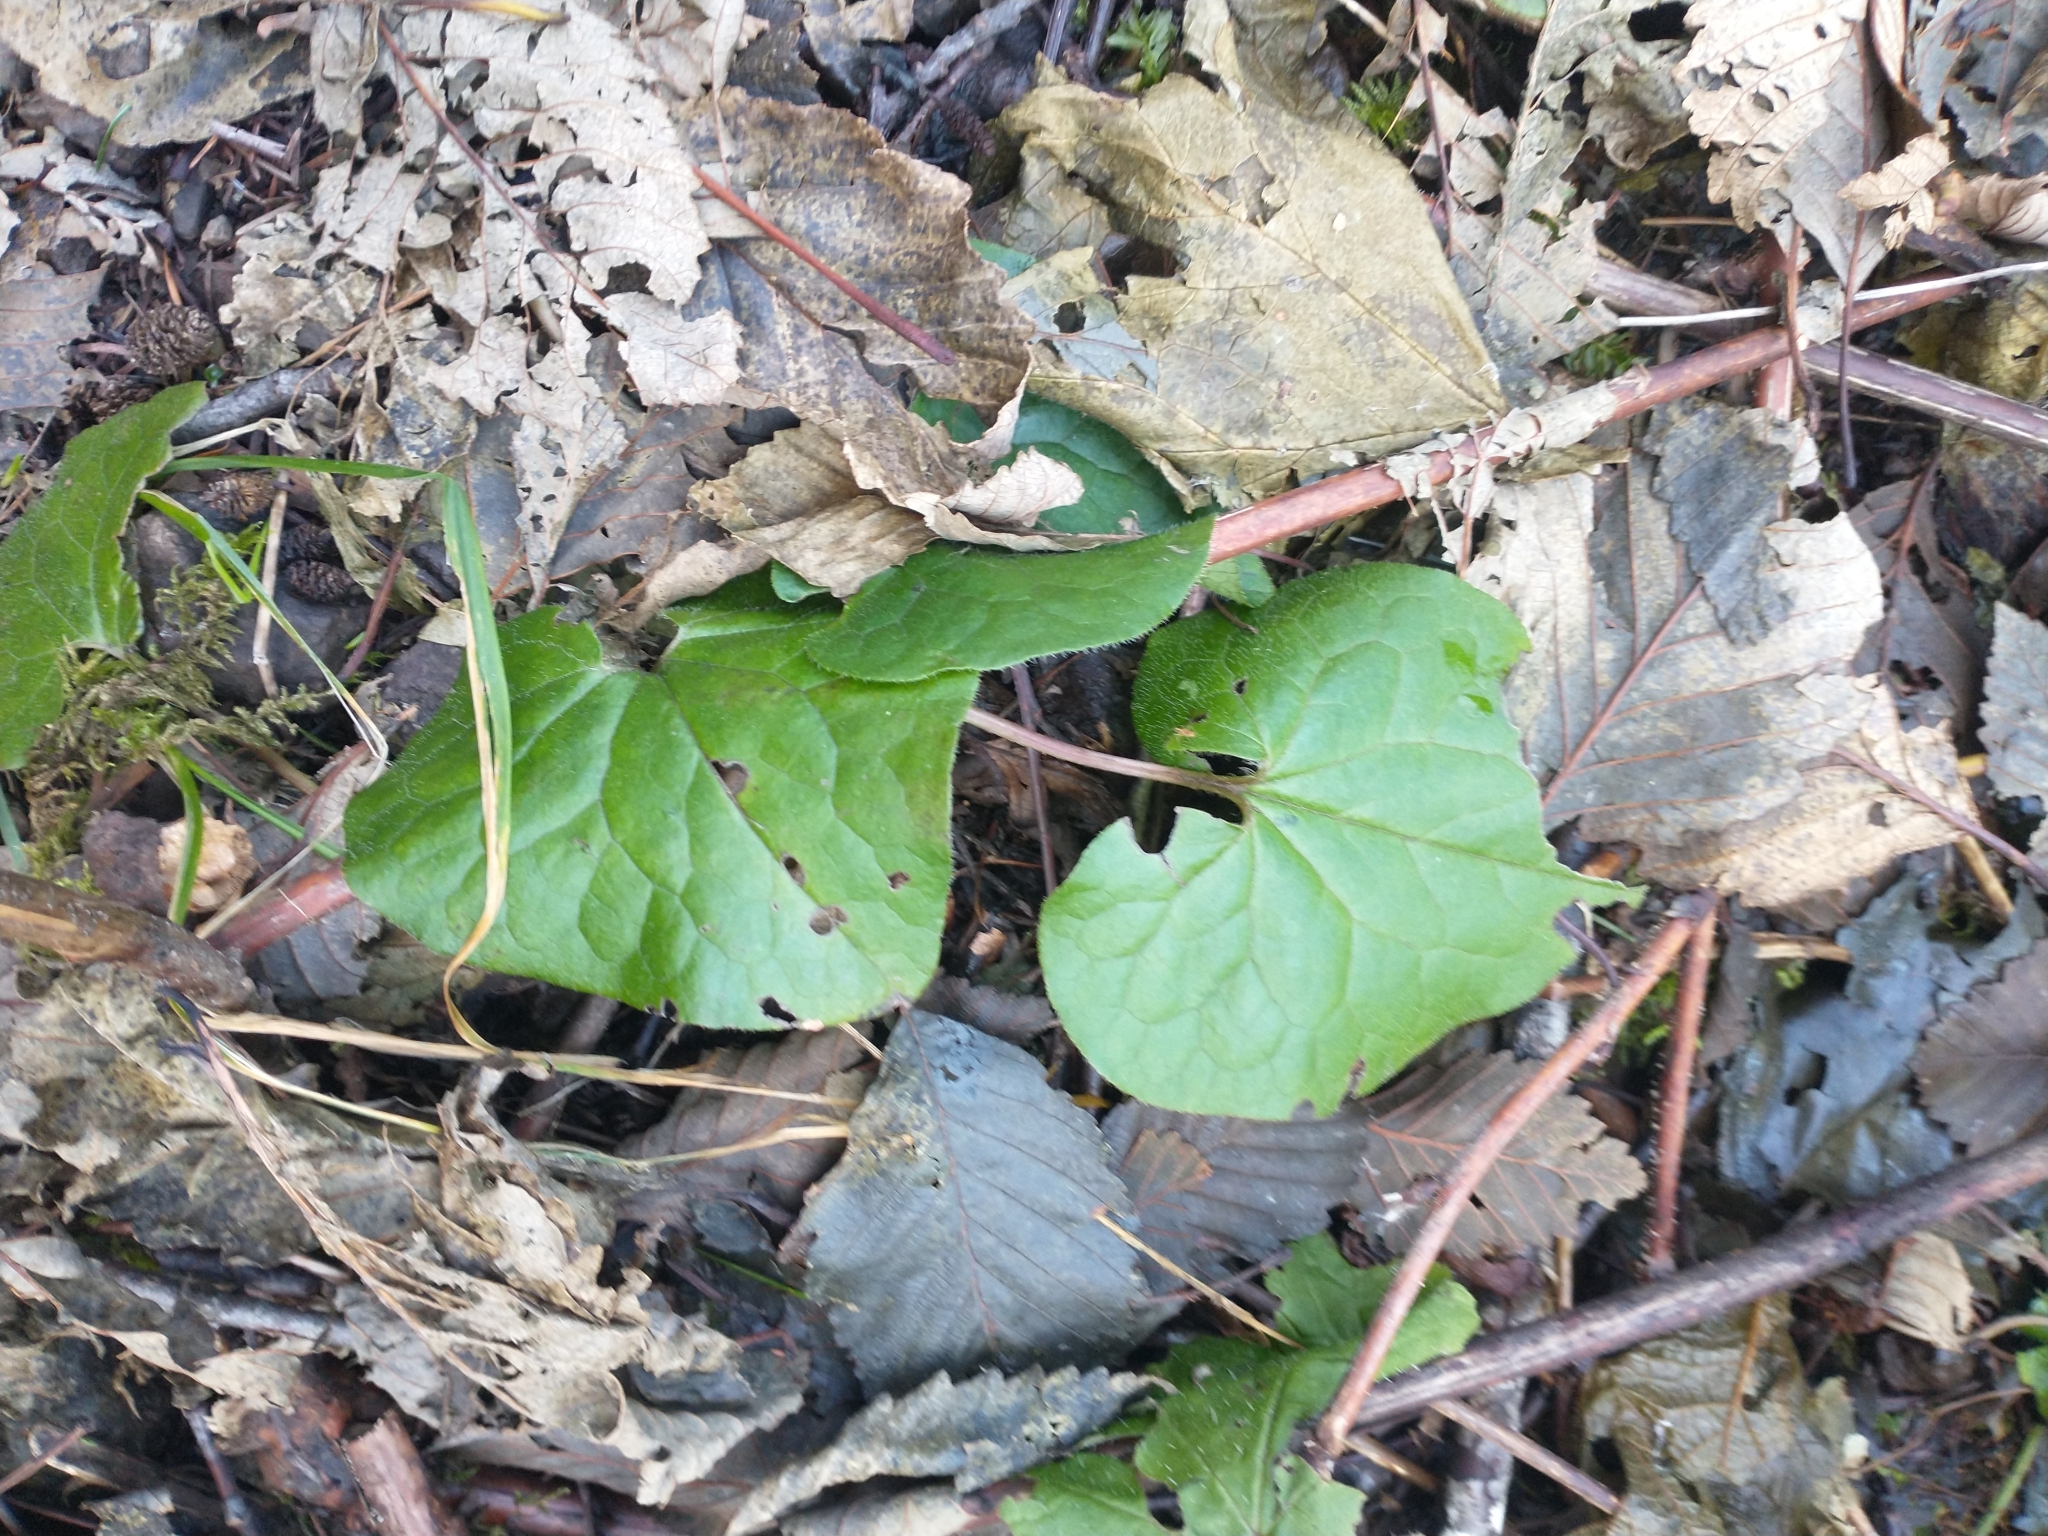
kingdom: Plantae
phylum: Tracheophyta
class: Magnoliopsida
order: Piperales
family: Aristolochiaceae
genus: Asarum
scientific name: Asarum caudatum
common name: Wild ginger
